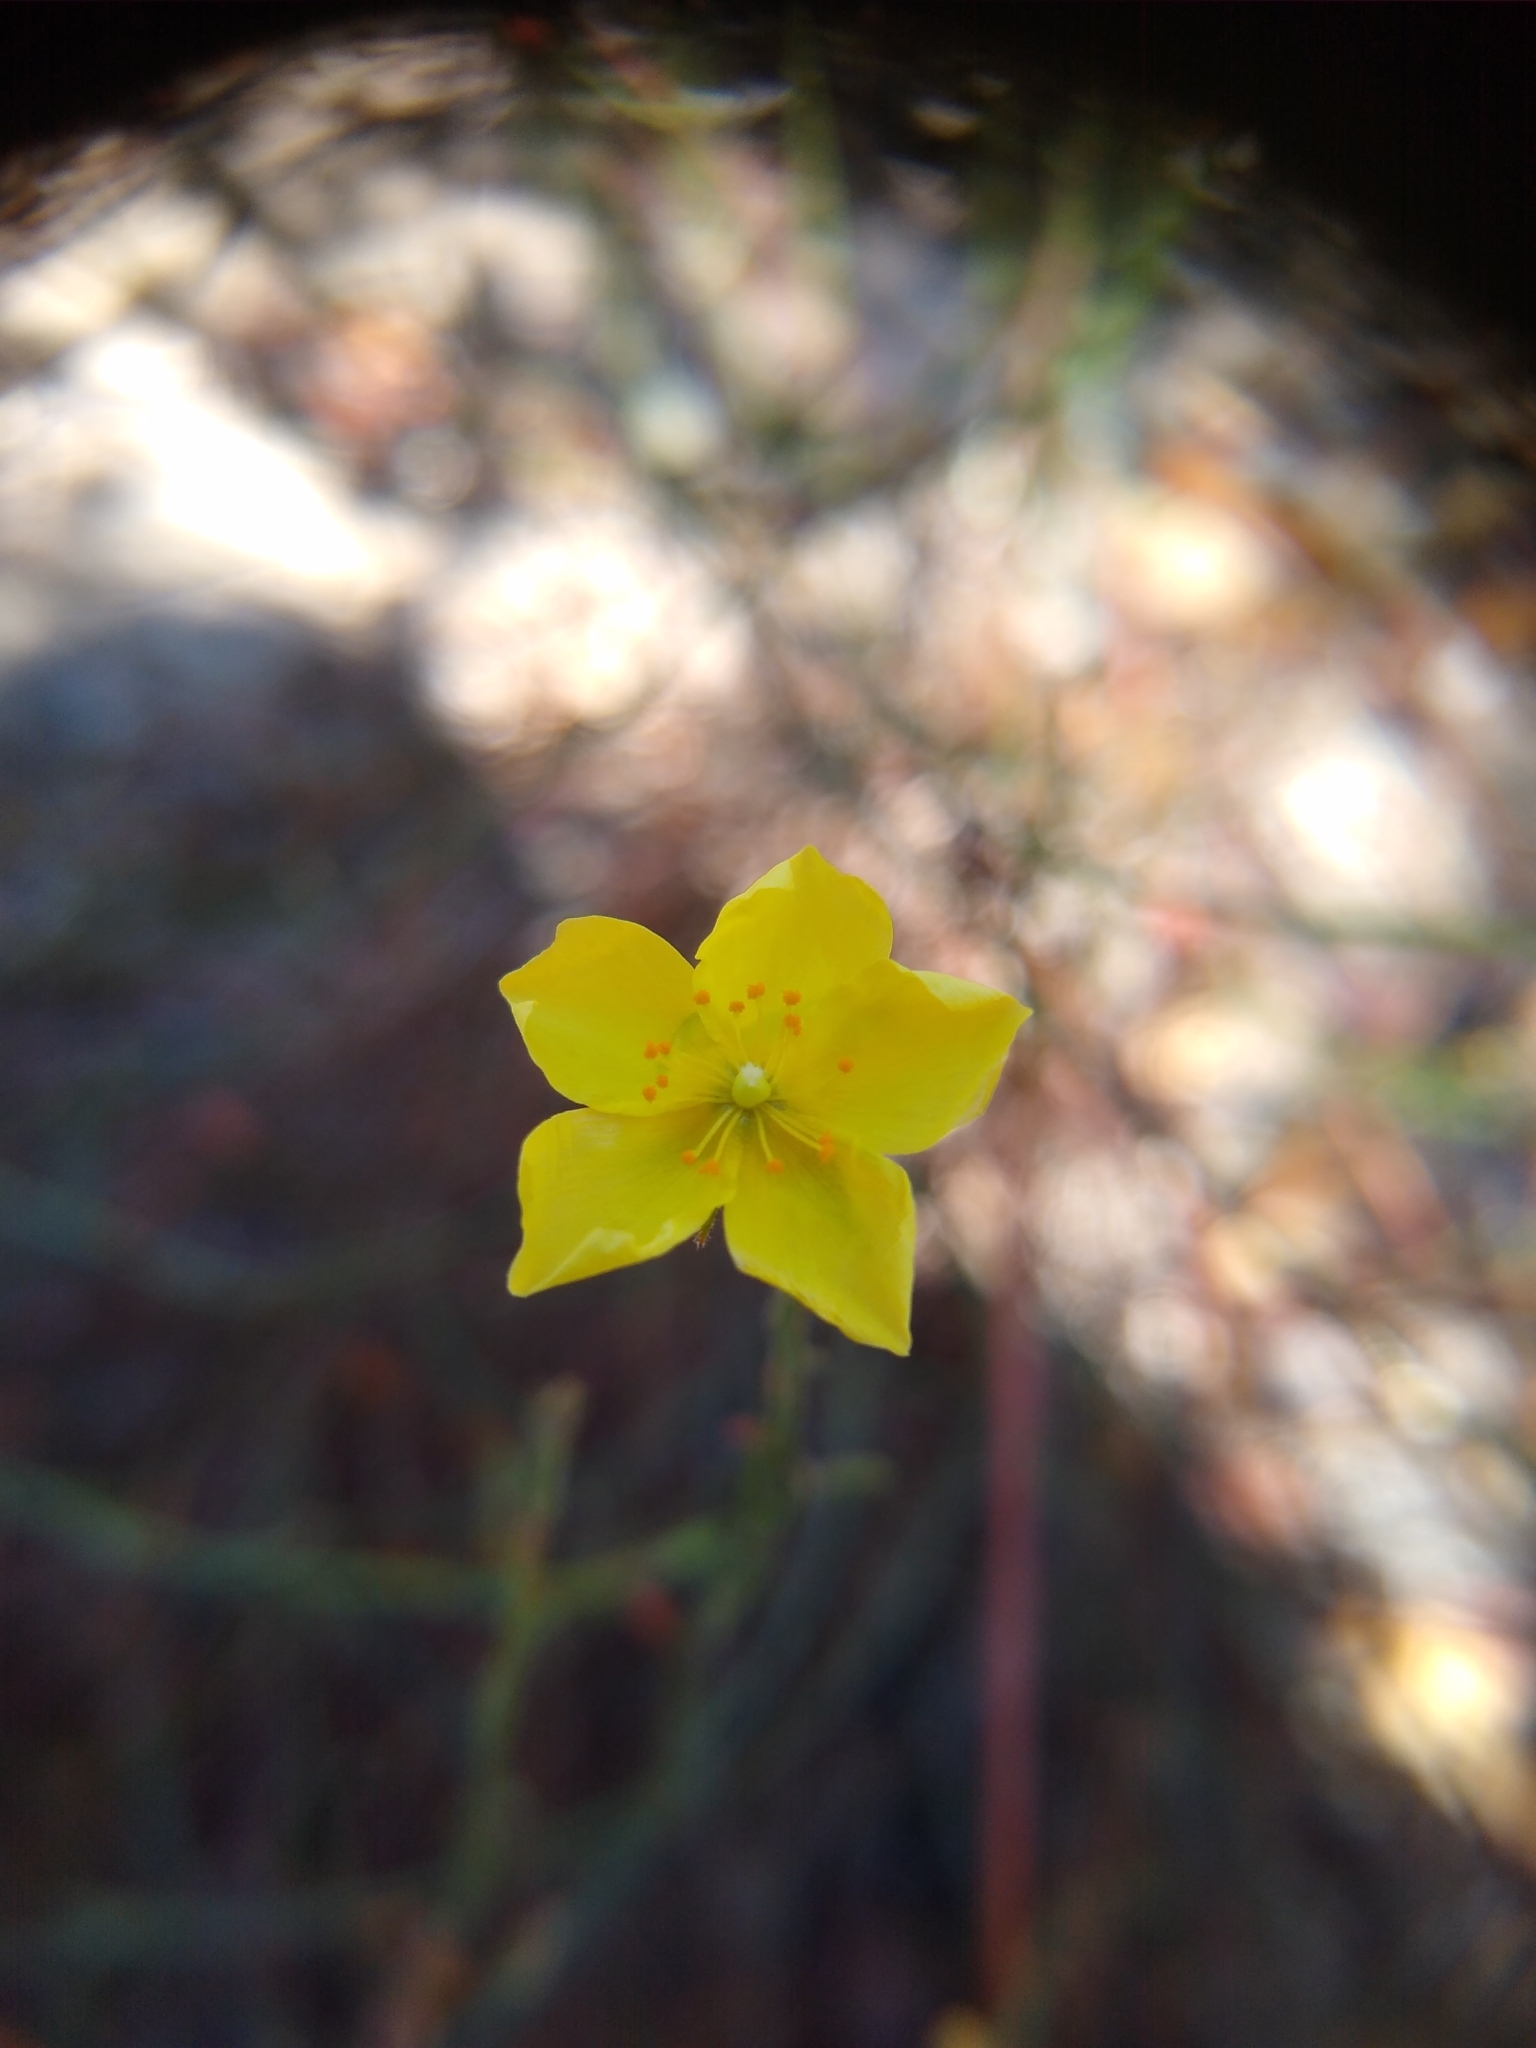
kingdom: Plantae
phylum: Tracheophyta
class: Magnoliopsida
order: Malvales
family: Cistaceae
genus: Crocanthemum
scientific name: Crocanthemum scoparium
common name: Broom-rose
